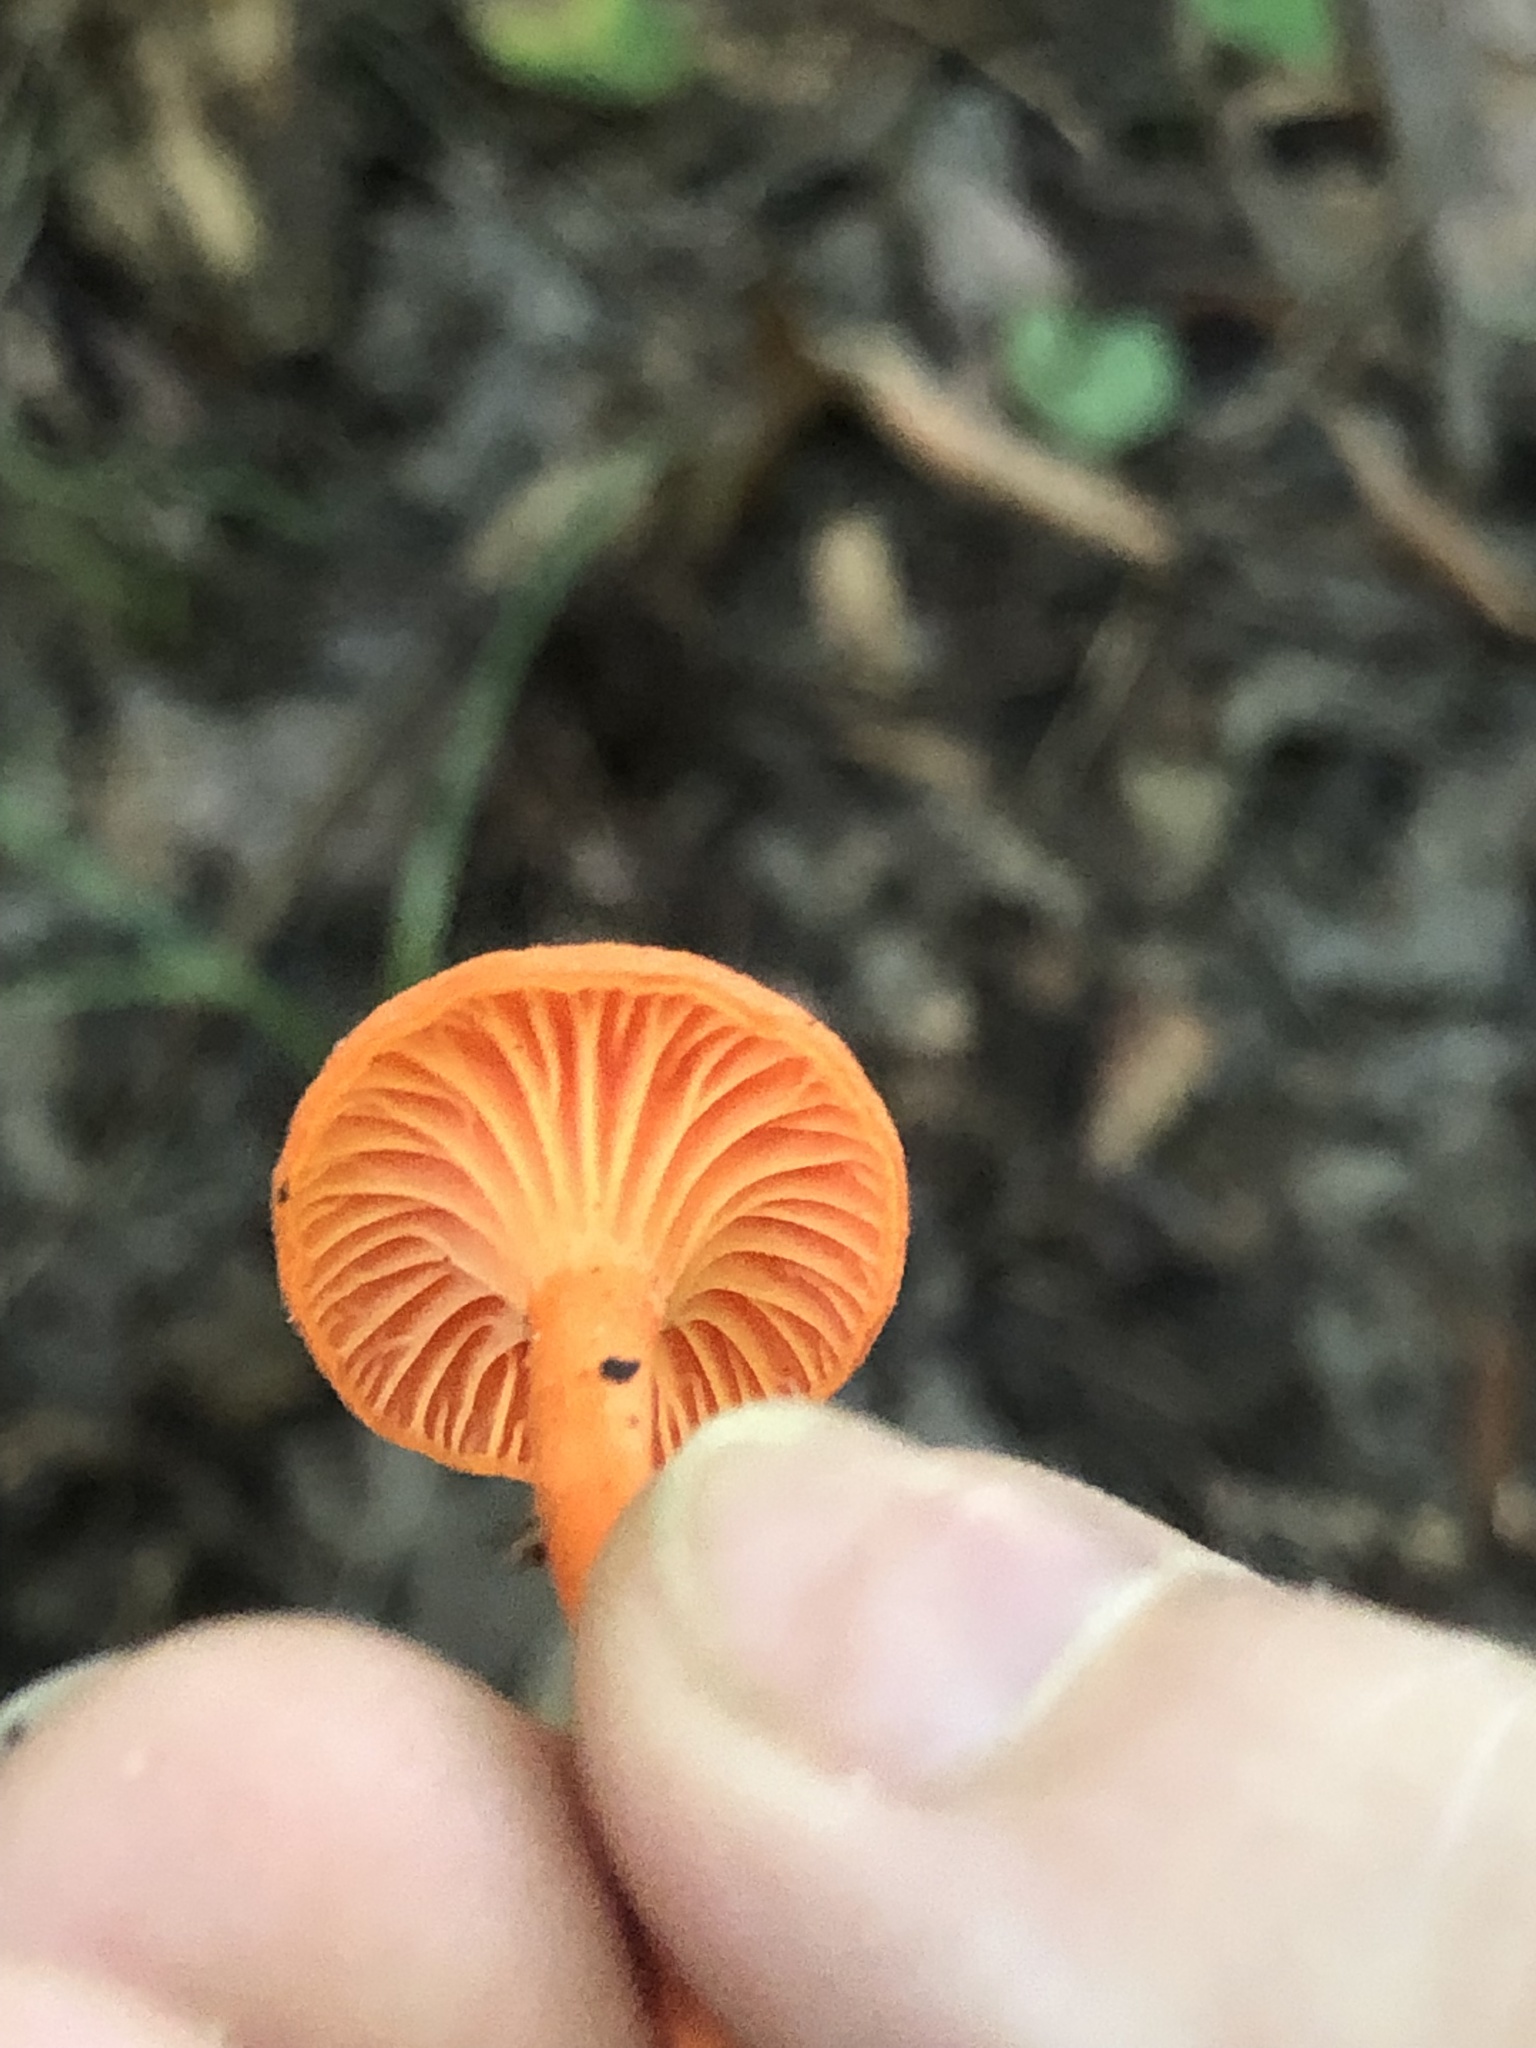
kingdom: Fungi
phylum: Basidiomycota
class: Agaricomycetes
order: Cantharellales
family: Hydnaceae
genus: Cantharellus
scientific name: Cantharellus cinnabarinus
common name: Cinnabar chanterelle
